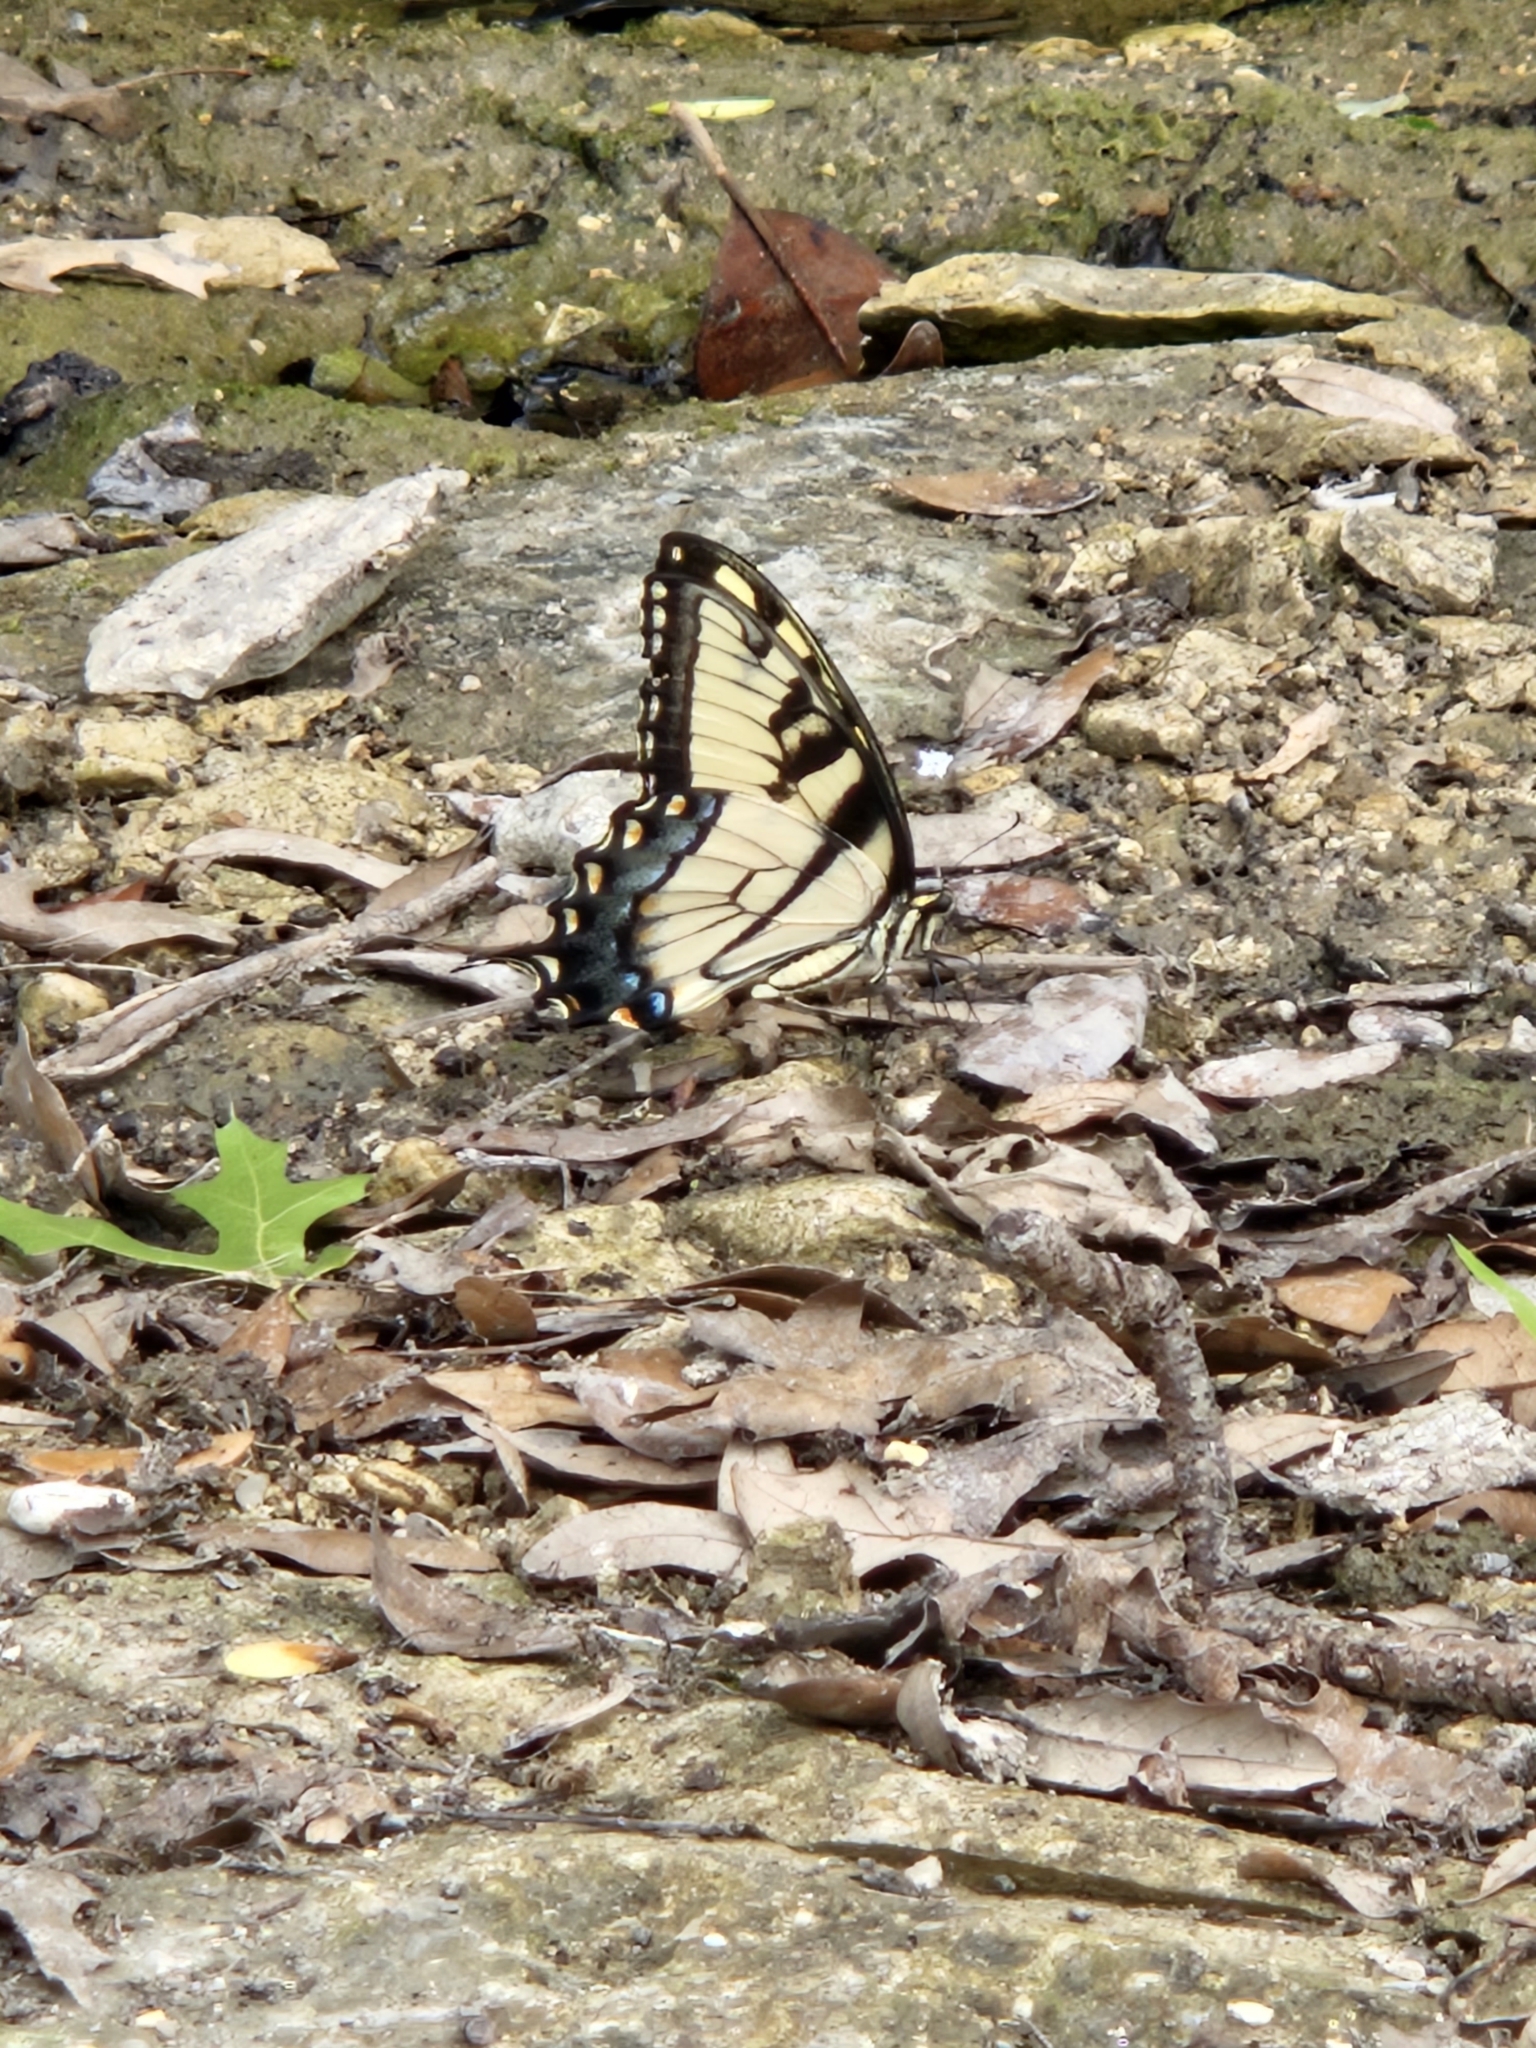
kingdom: Animalia
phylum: Arthropoda
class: Insecta
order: Lepidoptera
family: Papilionidae
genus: Papilio
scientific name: Papilio glaucus
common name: Tiger swallowtail
